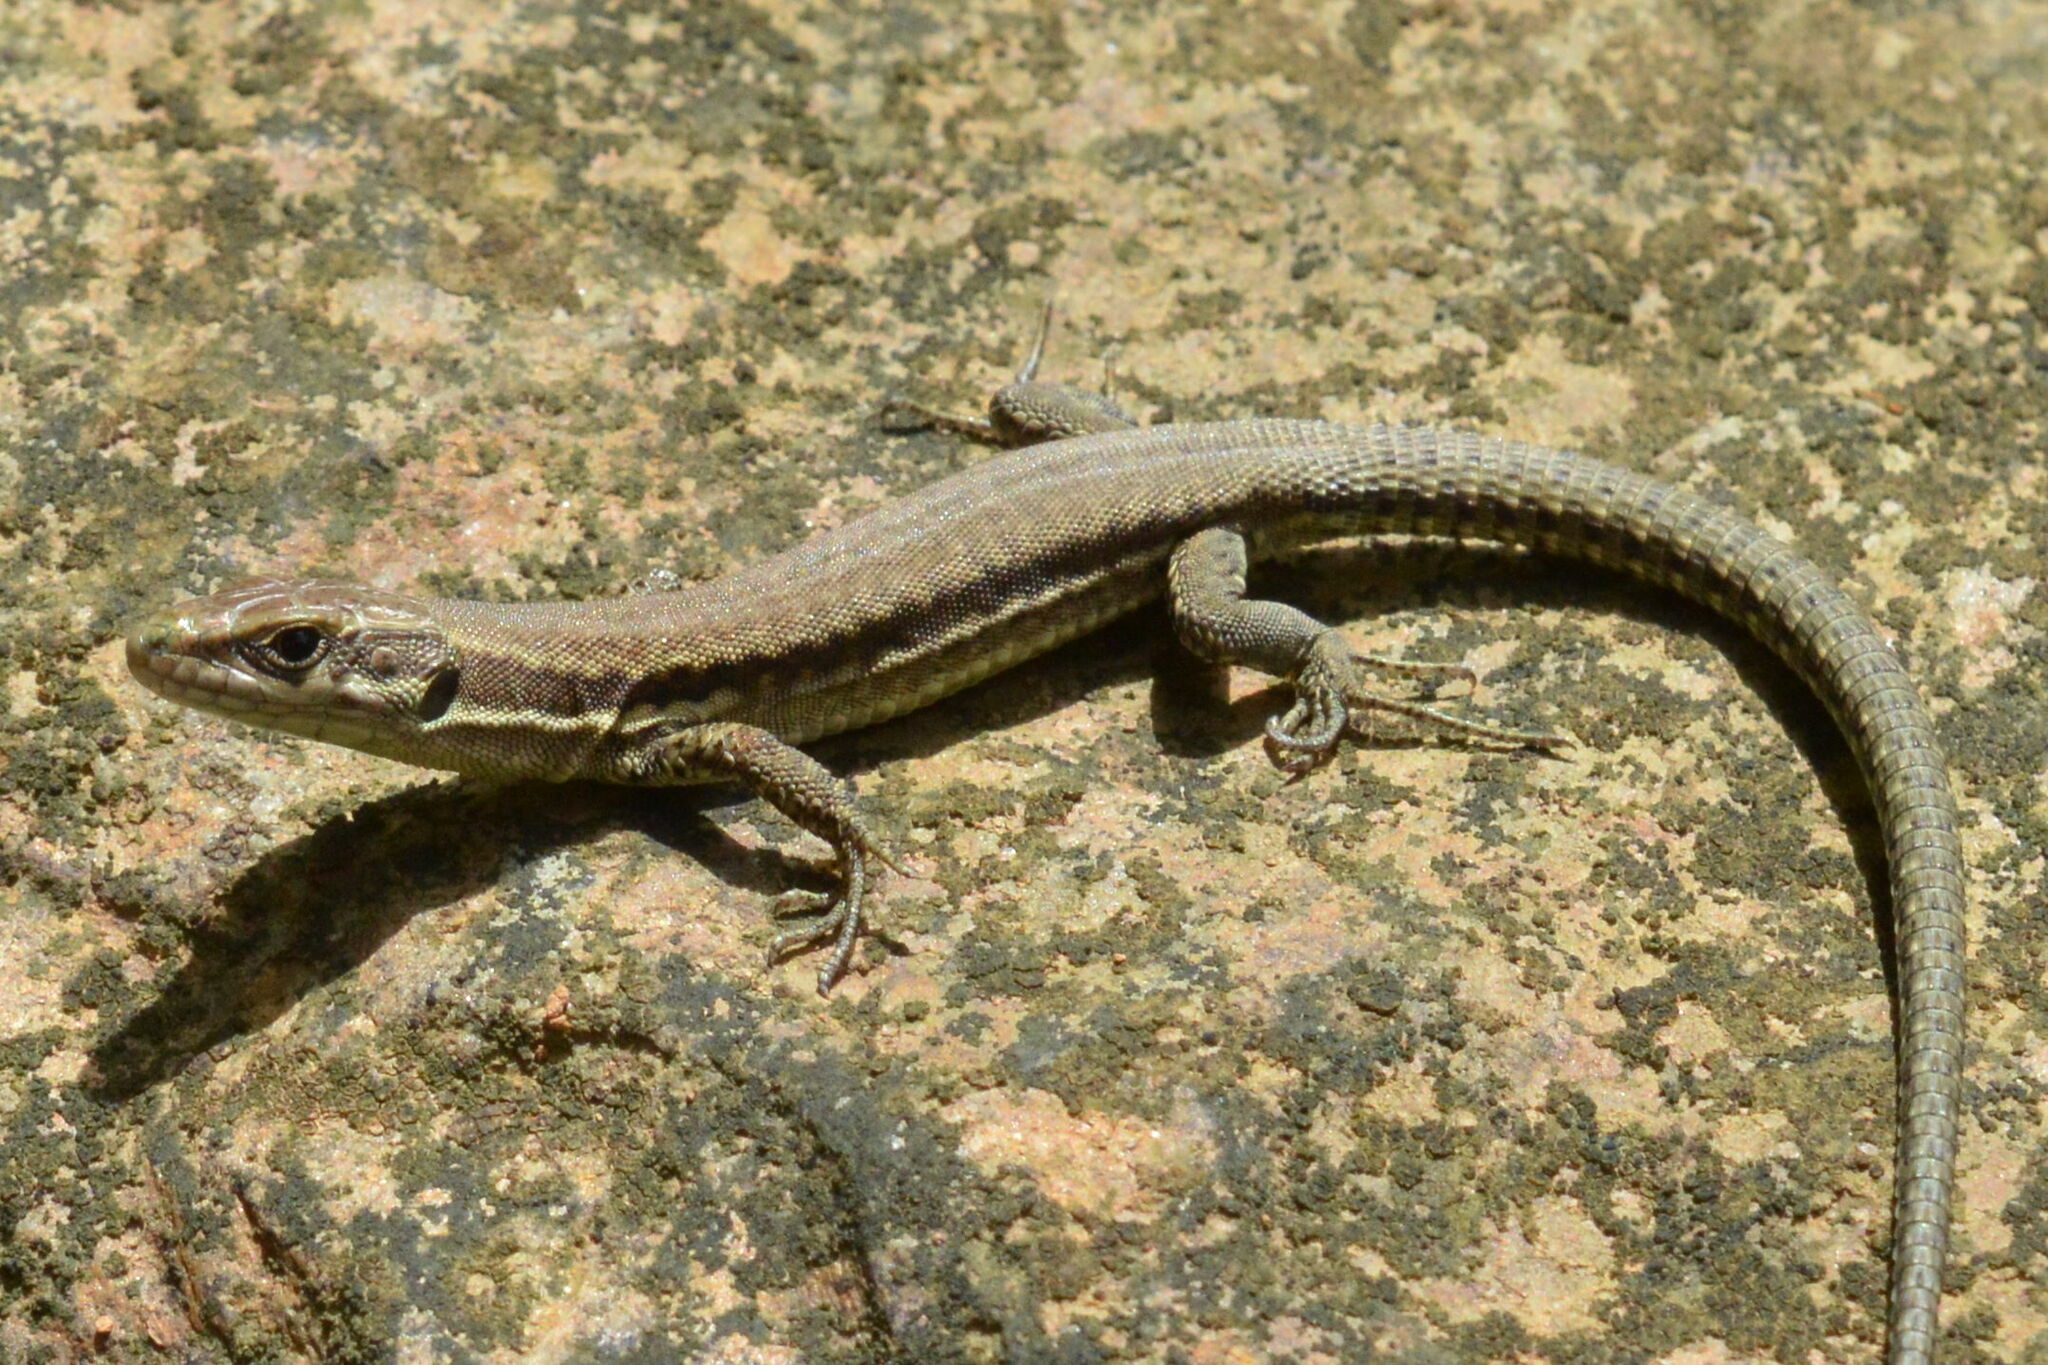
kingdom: Animalia
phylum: Chordata
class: Squamata
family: Lacertidae
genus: Podarcis
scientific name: Podarcis muralis
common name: Common wall lizard
